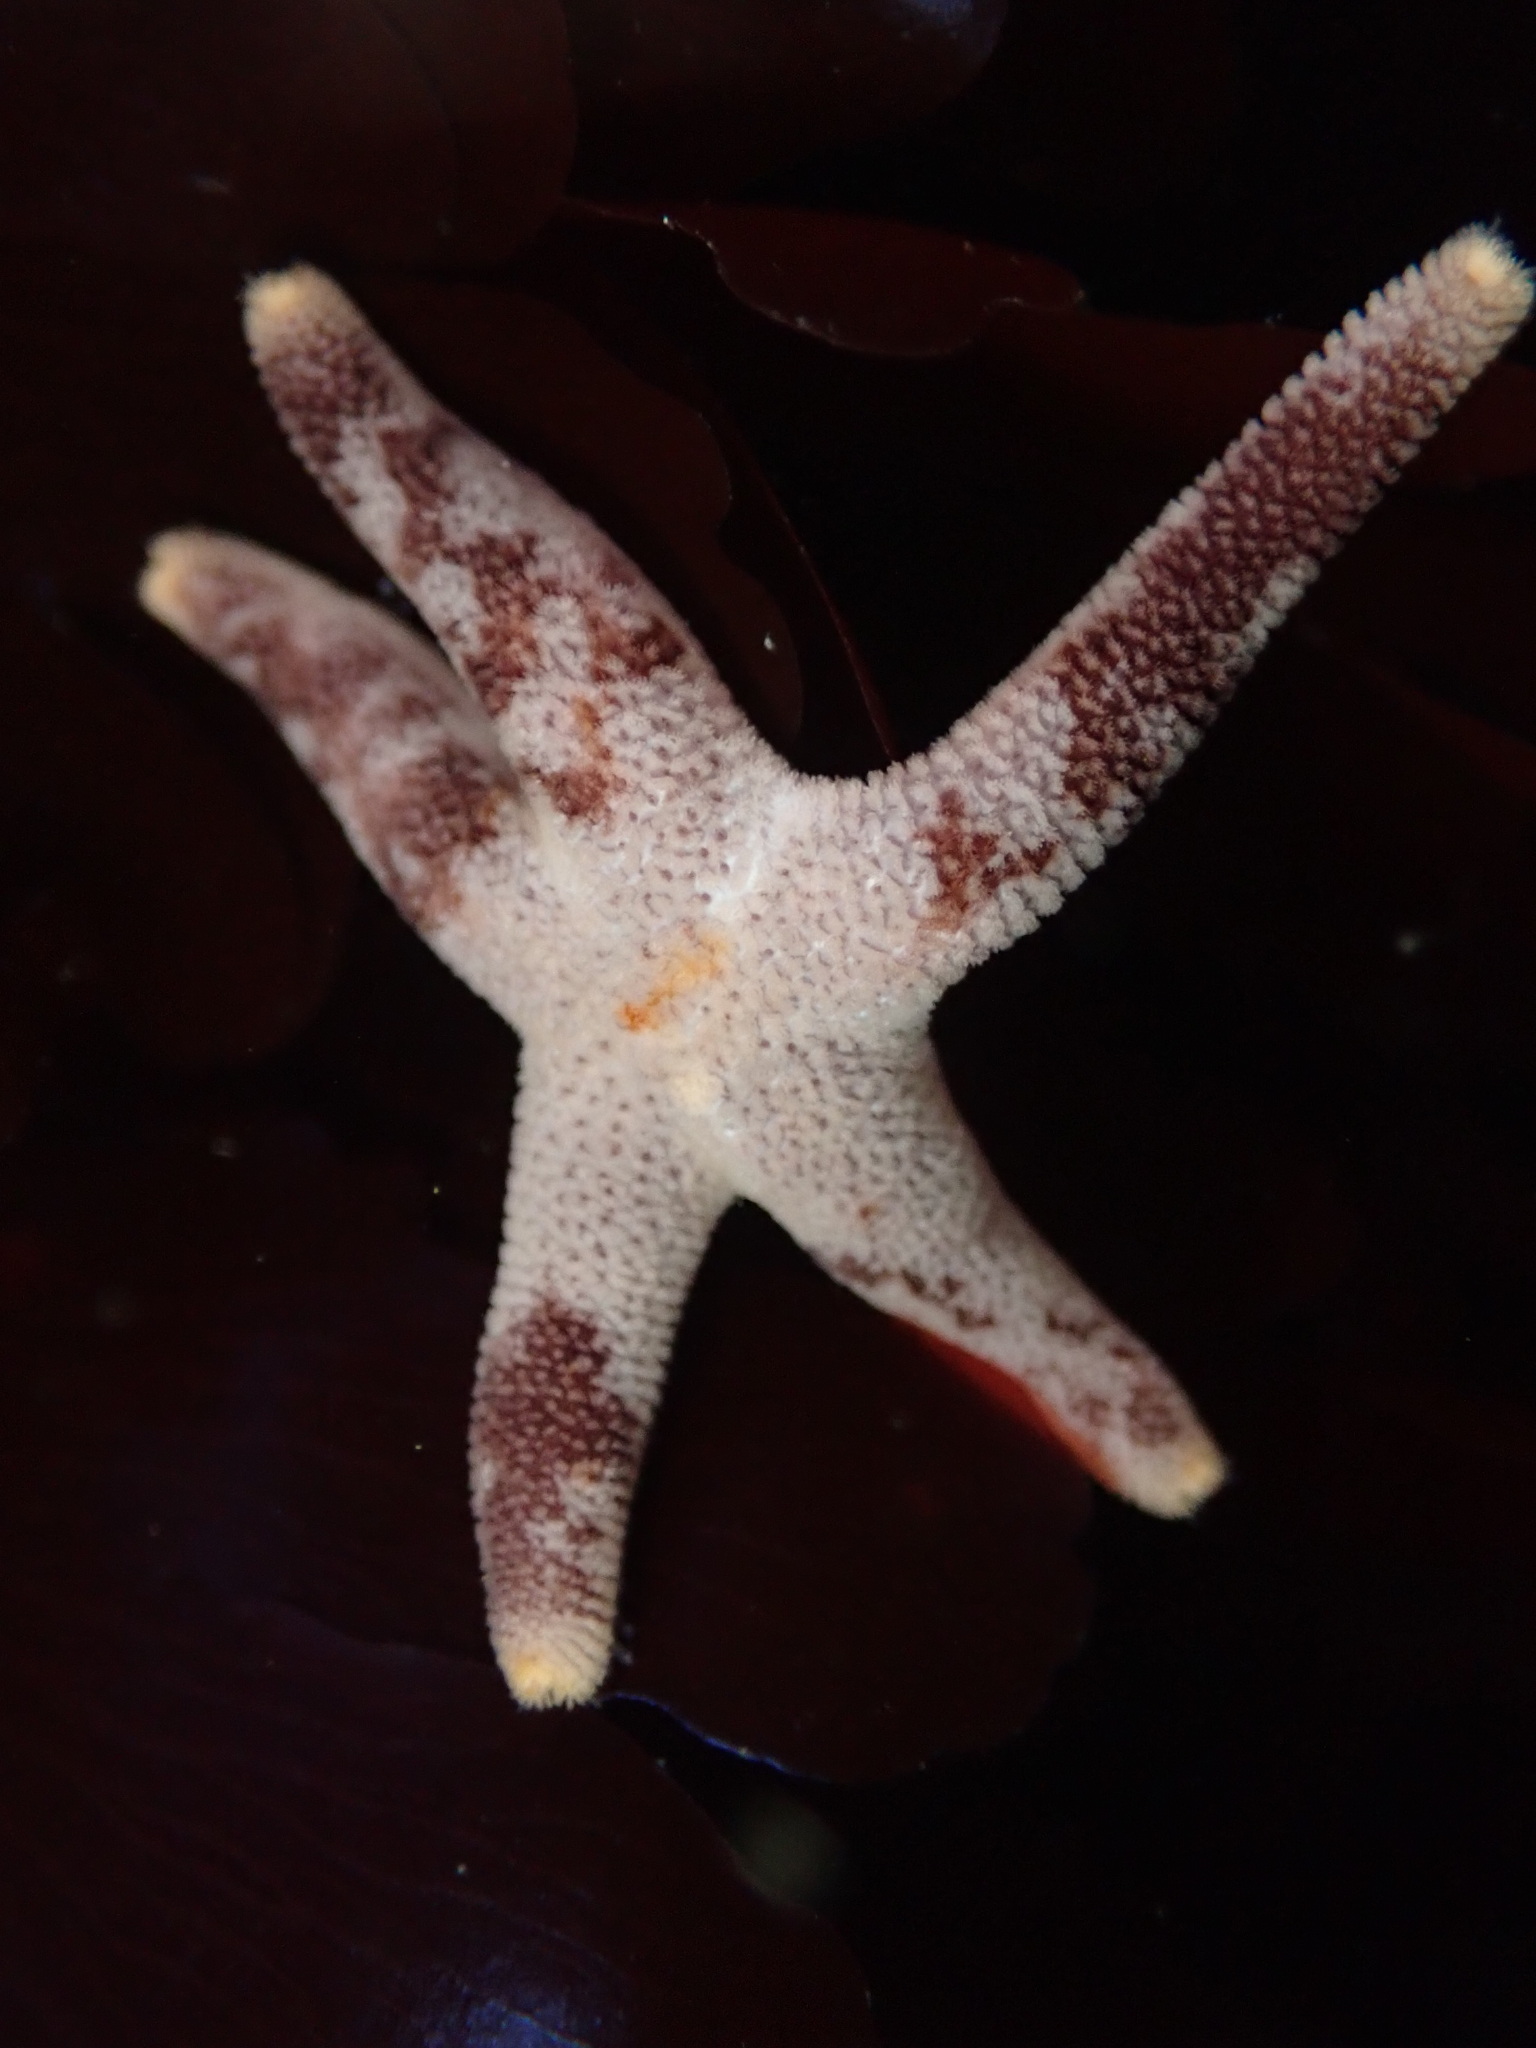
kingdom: Animalia
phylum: Echinodermata
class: Asteroidea
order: Spinulosida
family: Echinasteridae
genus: Henricia
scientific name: Henricia pumila
